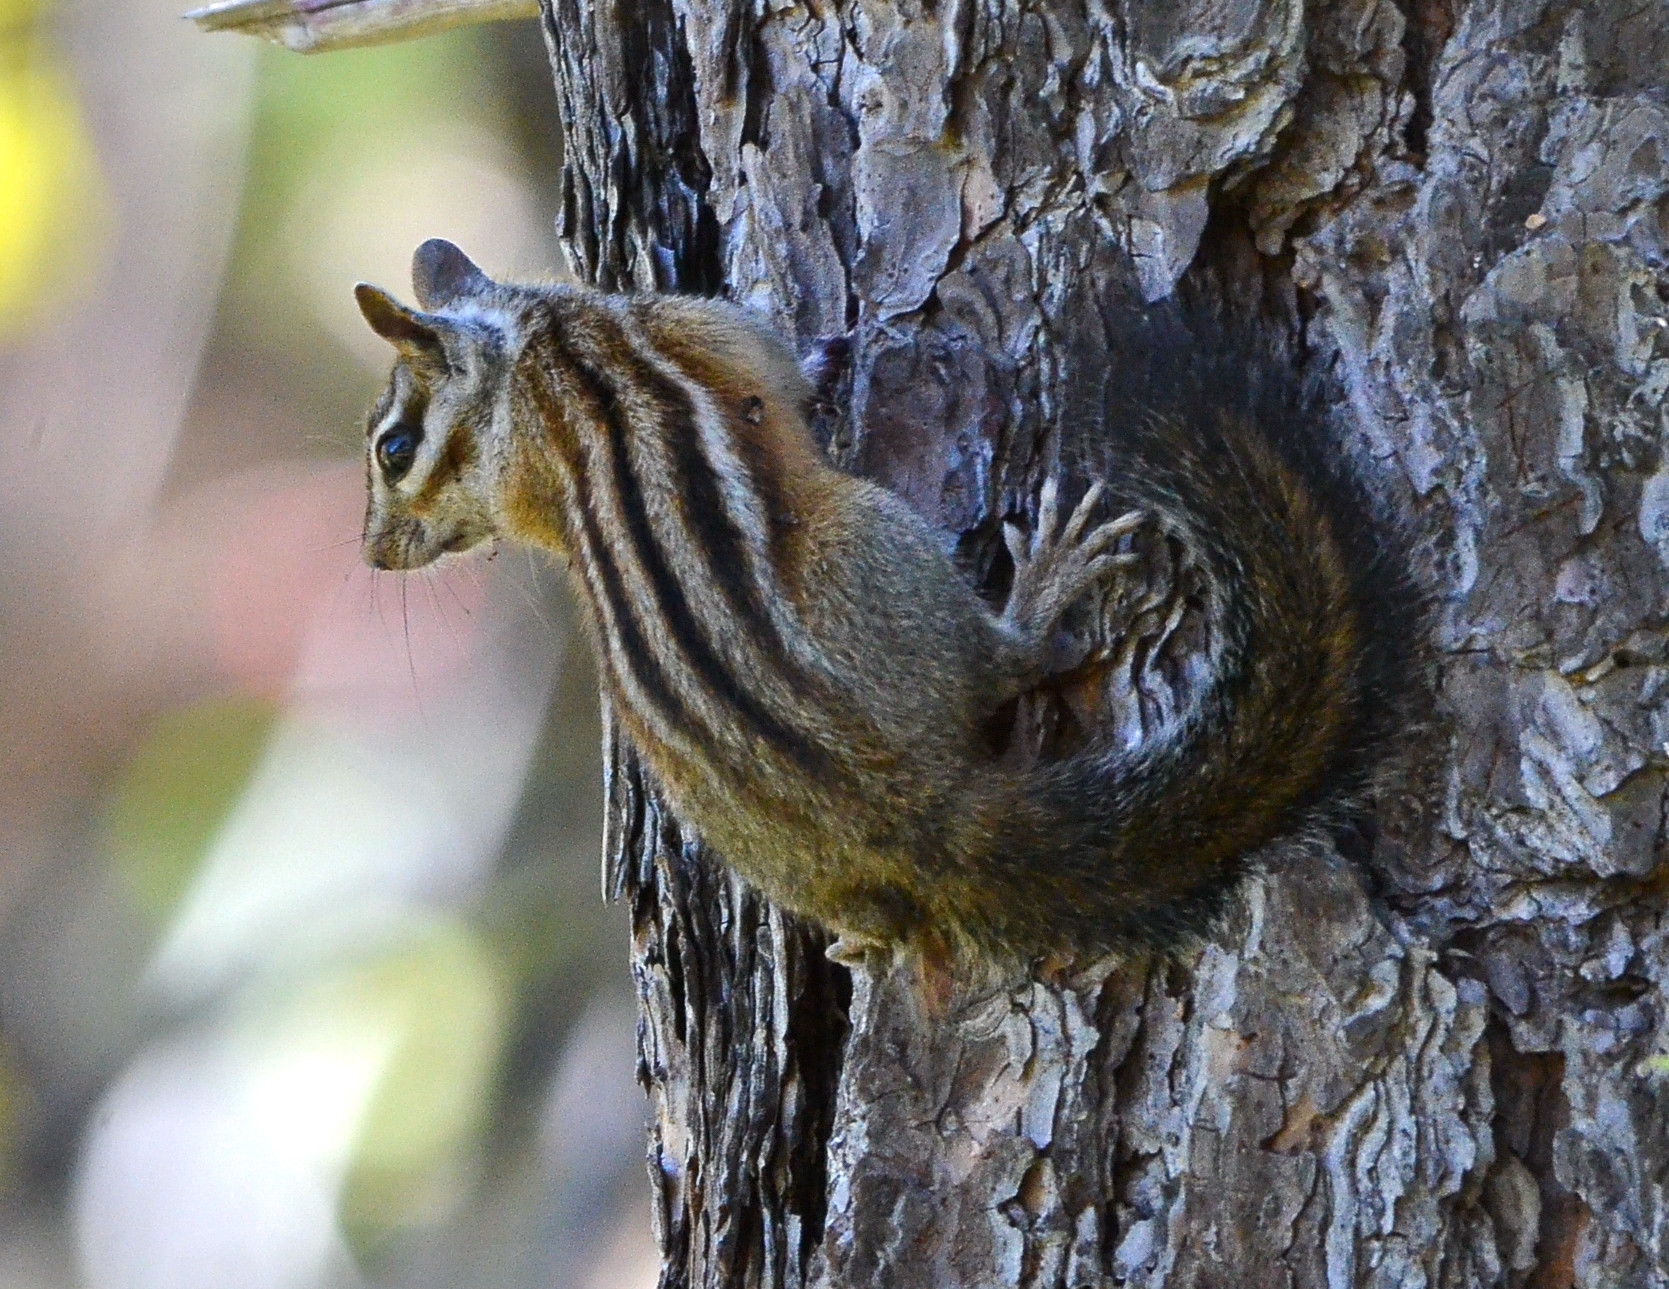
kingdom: Animalia
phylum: Chordata
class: Mammalia
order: Rodentia
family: Sciuridae
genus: Tamias
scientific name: Tamias sonomae
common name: Sonoma chipmunk
